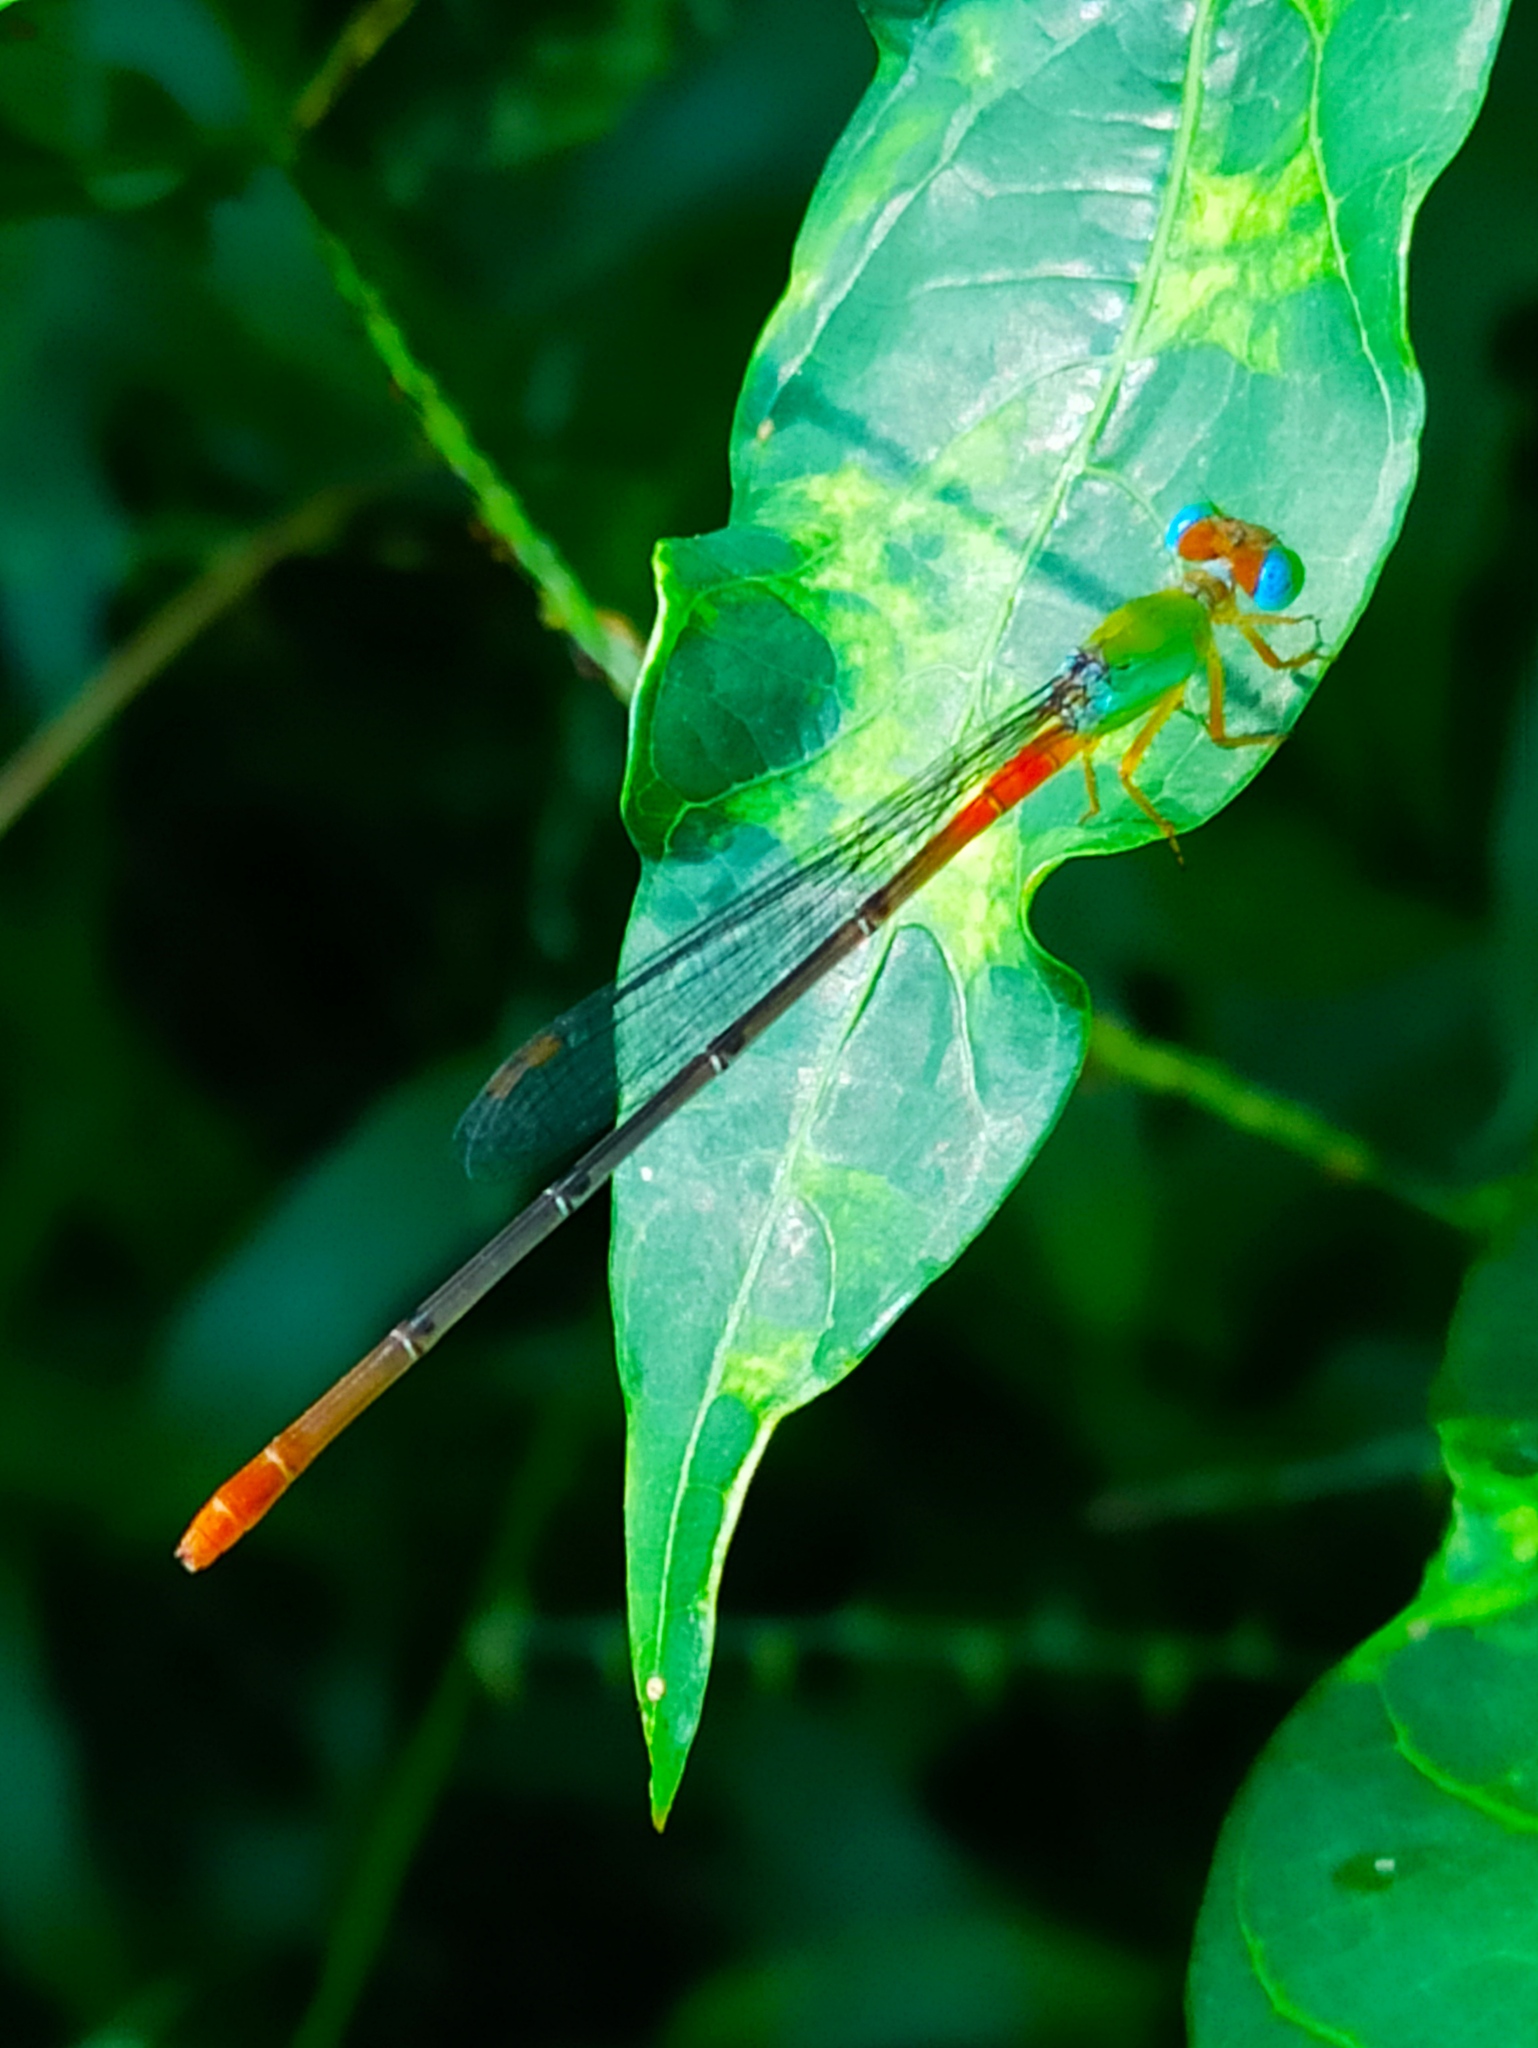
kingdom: Animalia
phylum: Arthropoda
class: Insecta
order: Odonata
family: Coenagrionidae
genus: Ceriagrion
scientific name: Ceriagrion cerinorubellum
